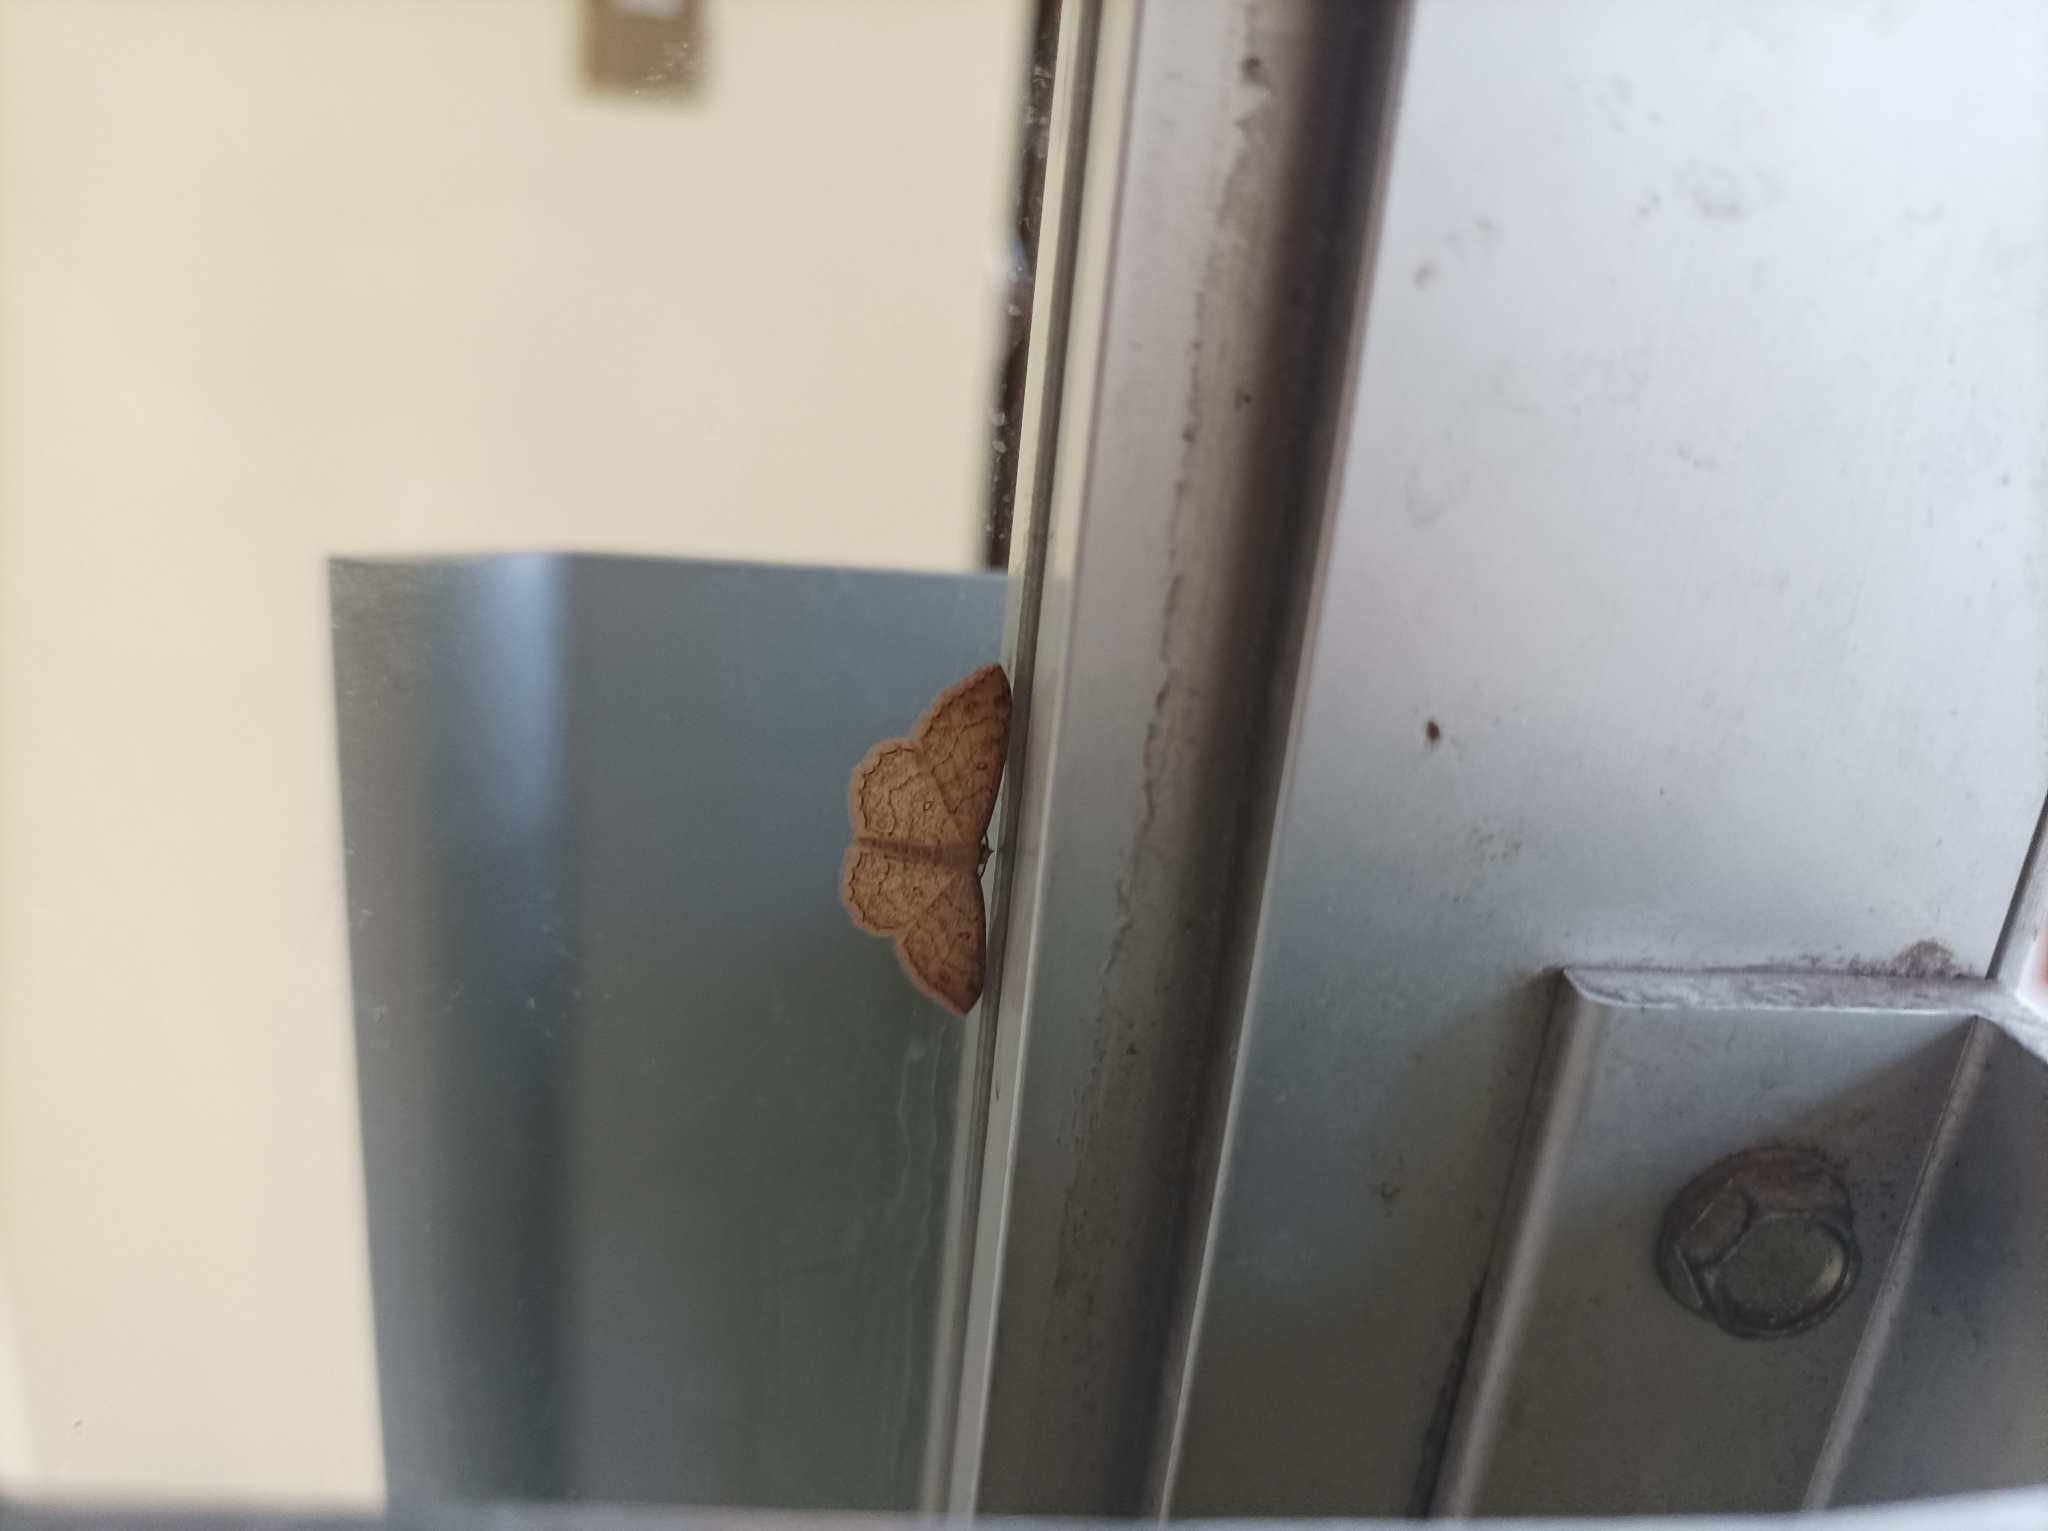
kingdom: Animalia
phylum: Arthropoda
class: Insecta
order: Lepidoptera
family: Geometridae
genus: Cyclophora
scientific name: Cyclophora nanaria
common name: Cankerworm
